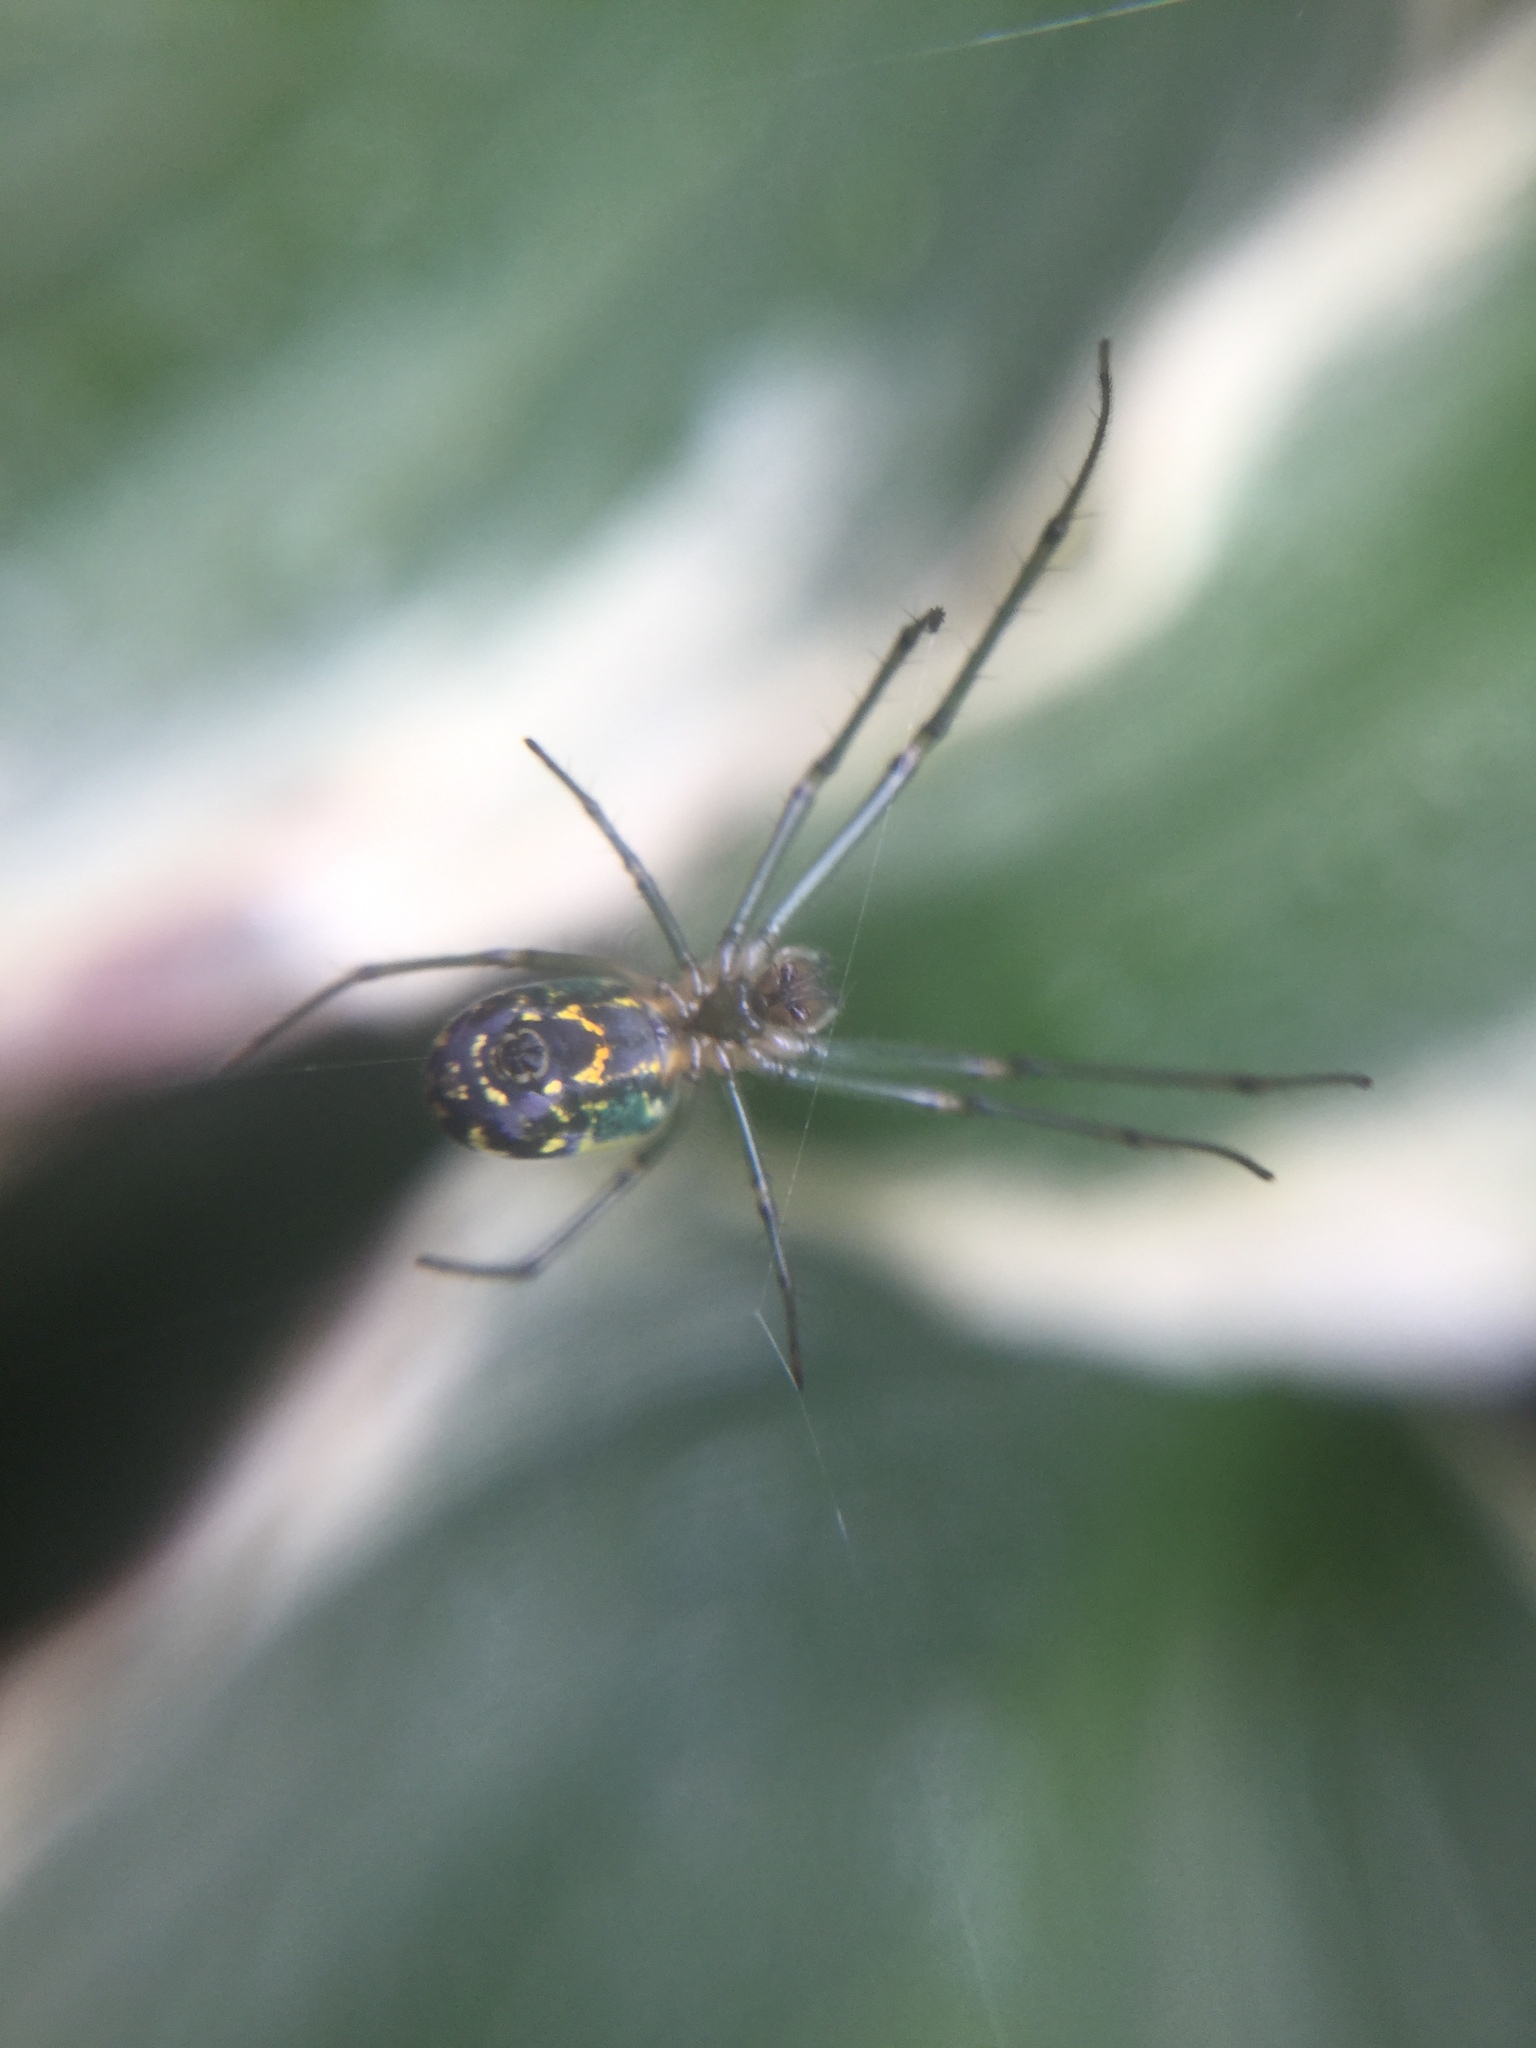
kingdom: Animalia
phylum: Arthropoda
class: Arachnida
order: Araneae
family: Tetragnathidae
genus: Leucauge
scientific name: Leucauge venusta
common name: Longjawed orb weavers
